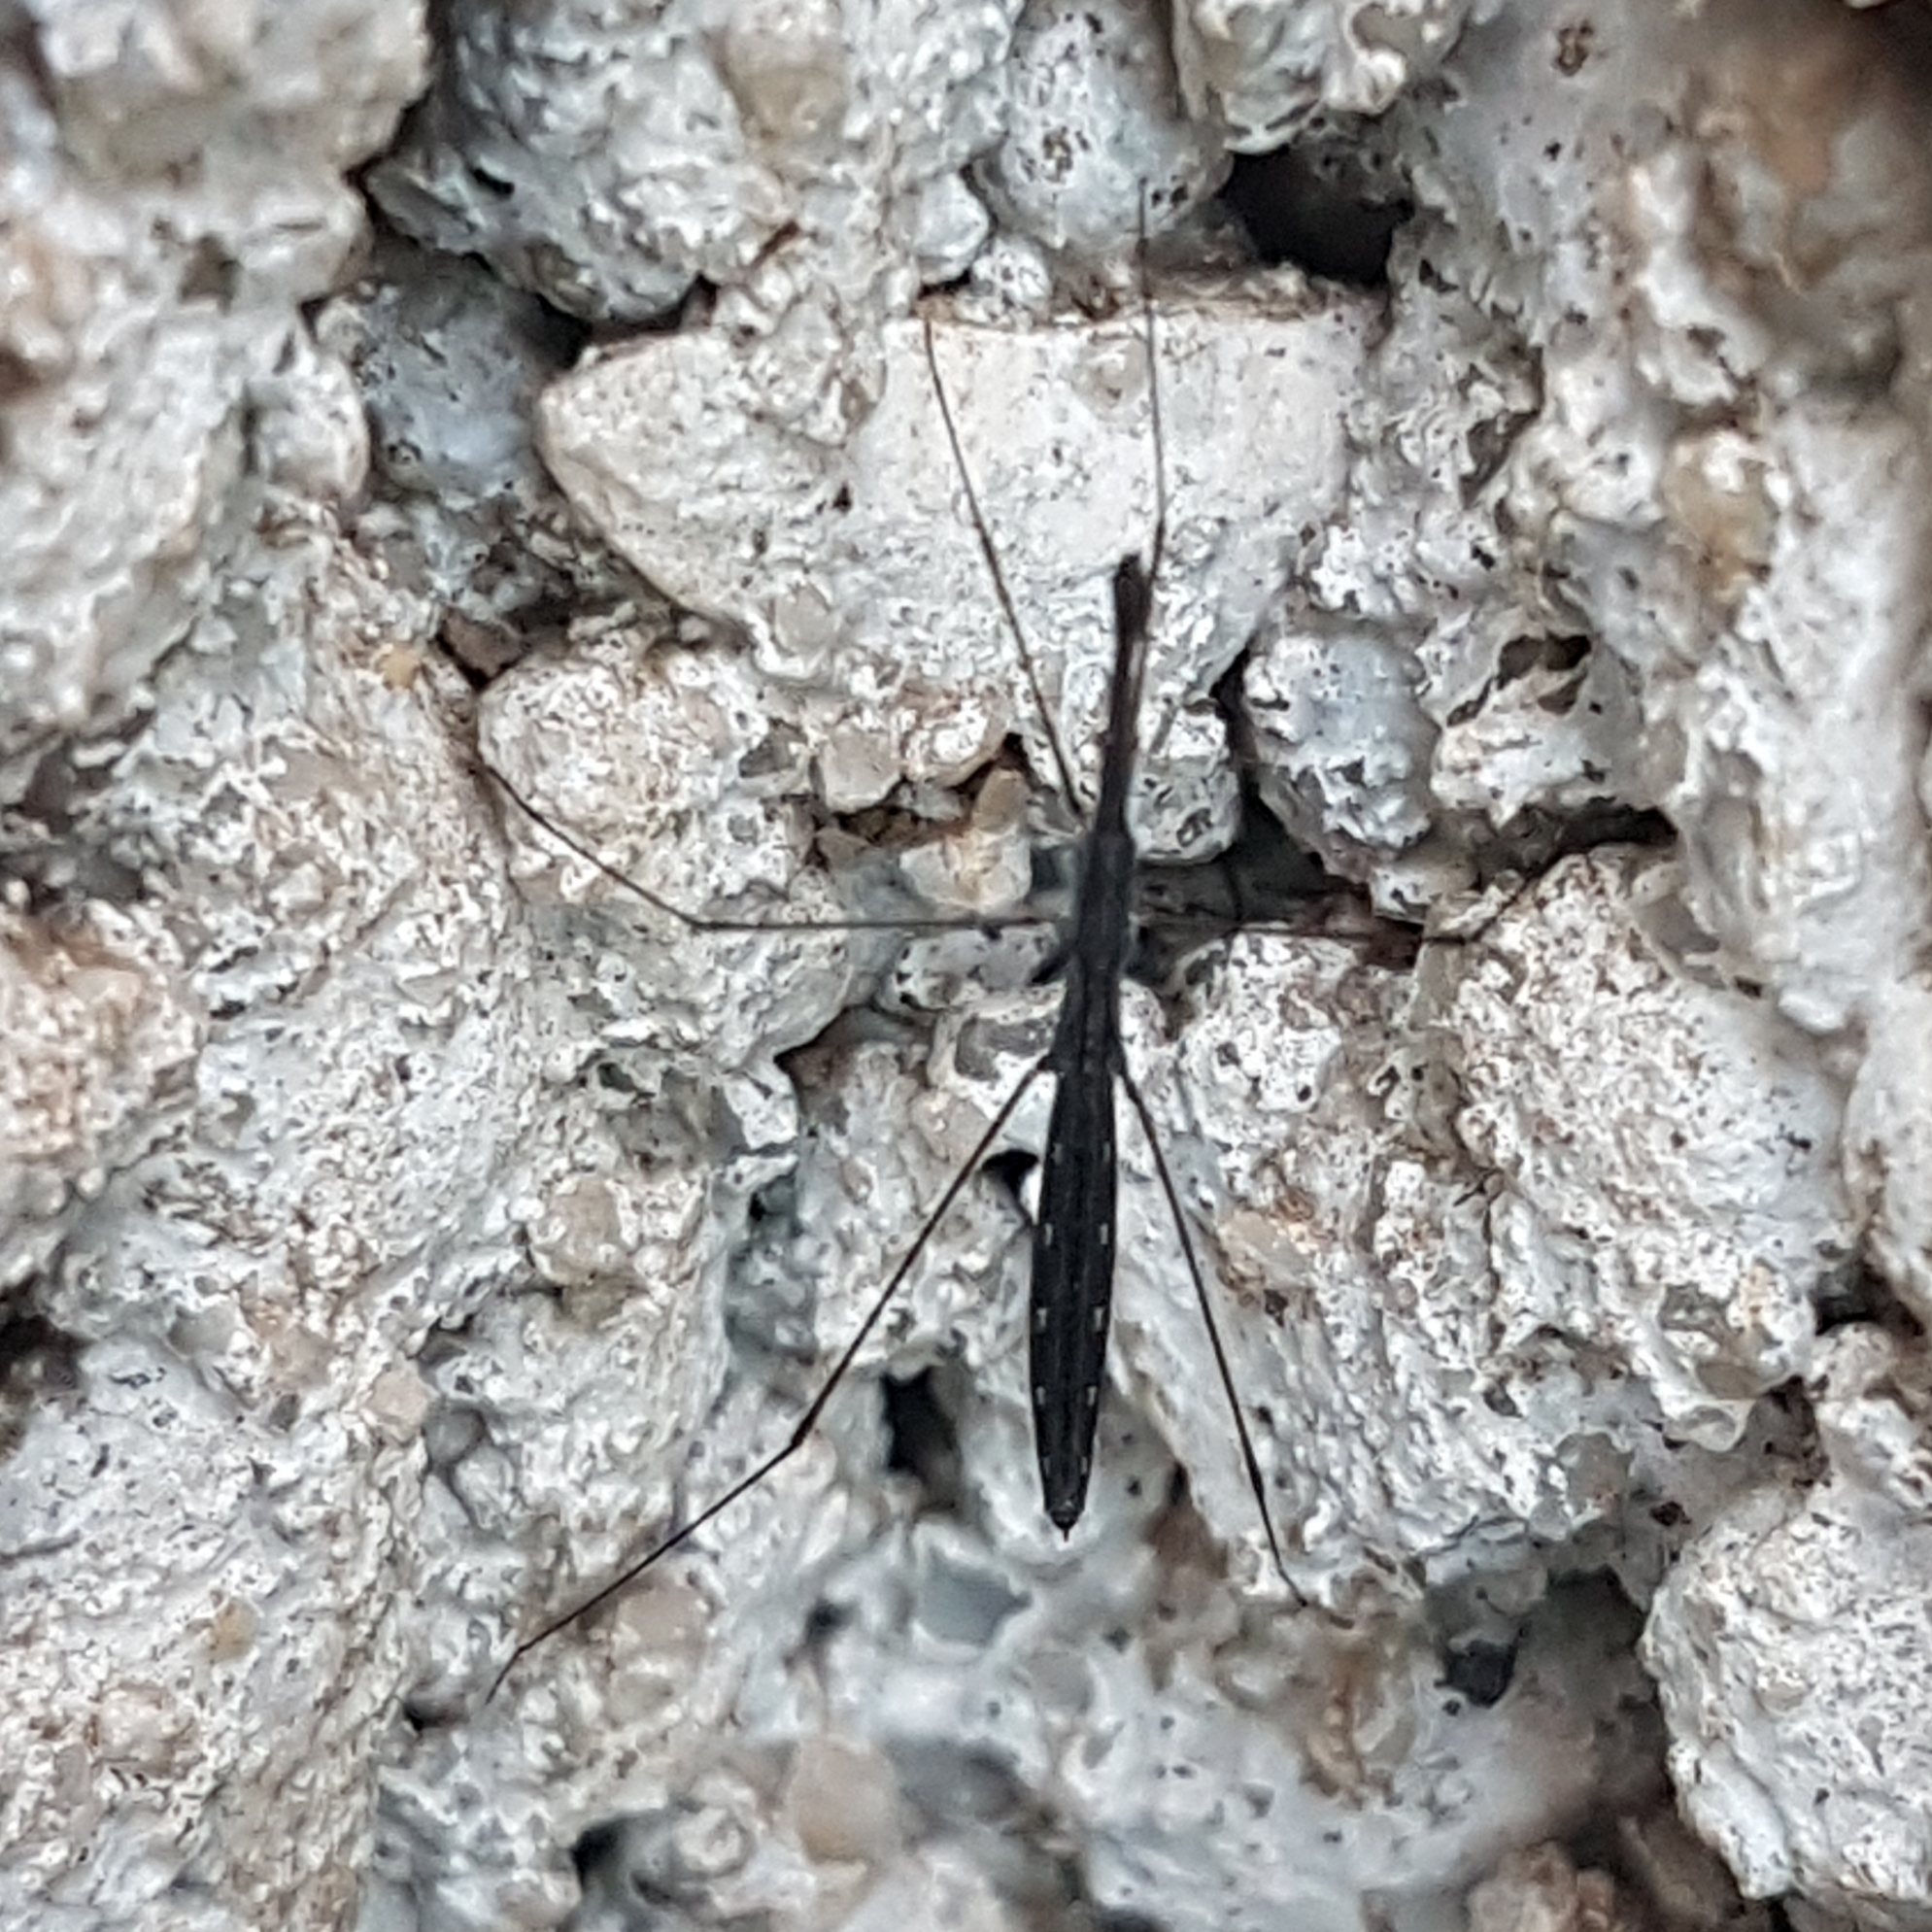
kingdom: Animalia
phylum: Arthropoda
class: Insecta
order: Hemiptera
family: Hydrometridae
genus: Hydrometra
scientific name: Hydrometra stagnorum
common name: Water measurer
